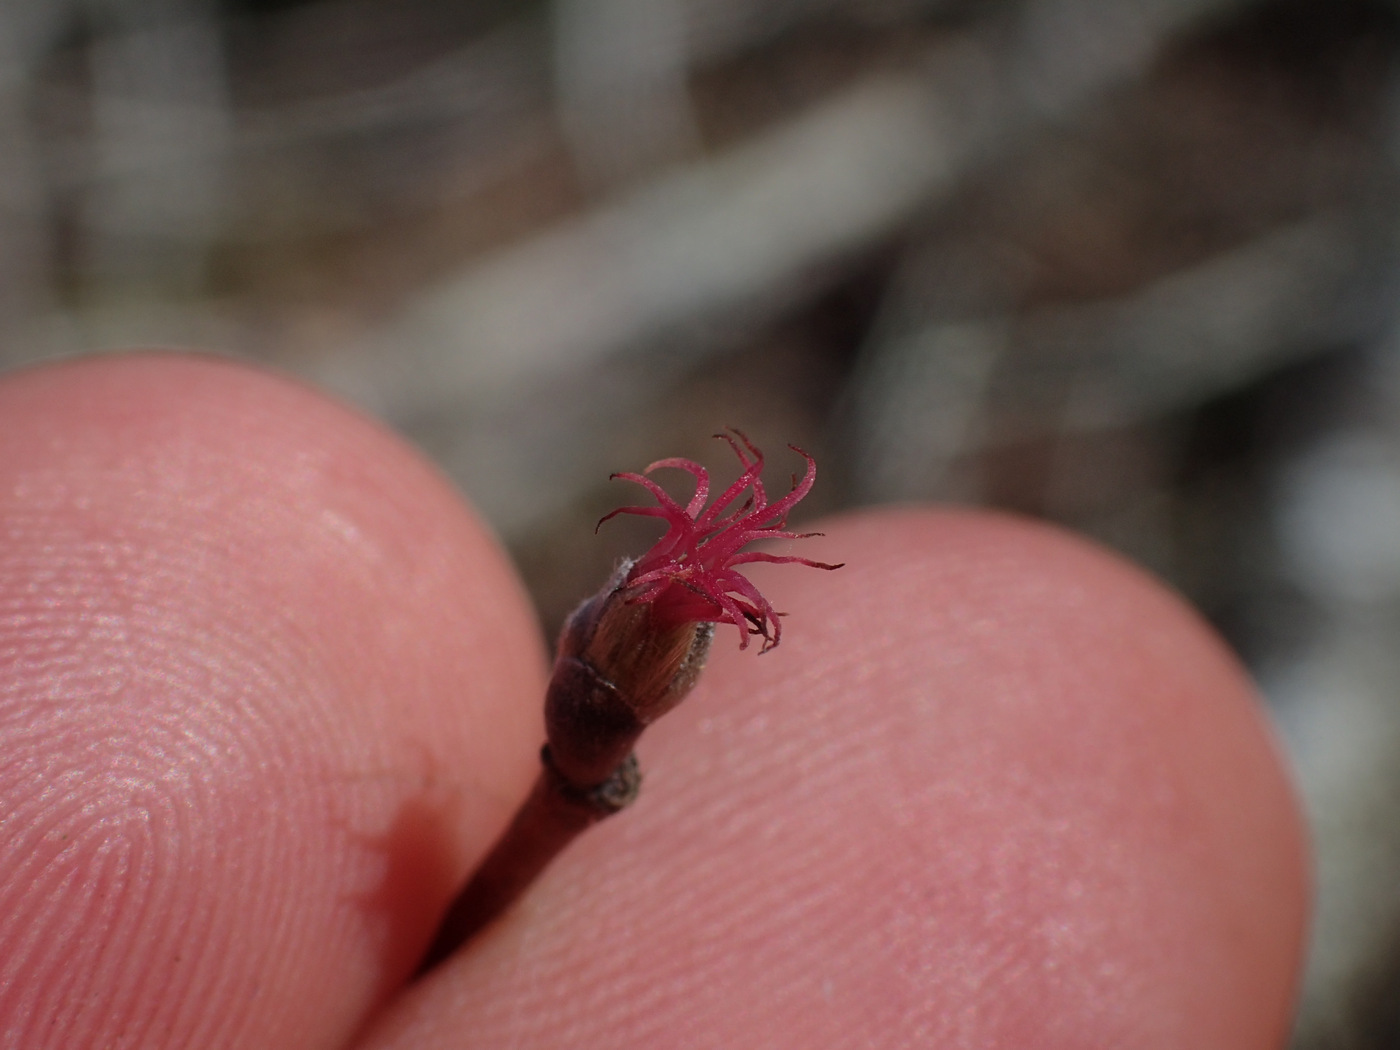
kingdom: Plantae
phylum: Tracheophyta
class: Magnoliopsida
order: Fagales
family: Betulaceae
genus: Corylus
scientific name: Corylus cornuta
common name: Beaked hazel
